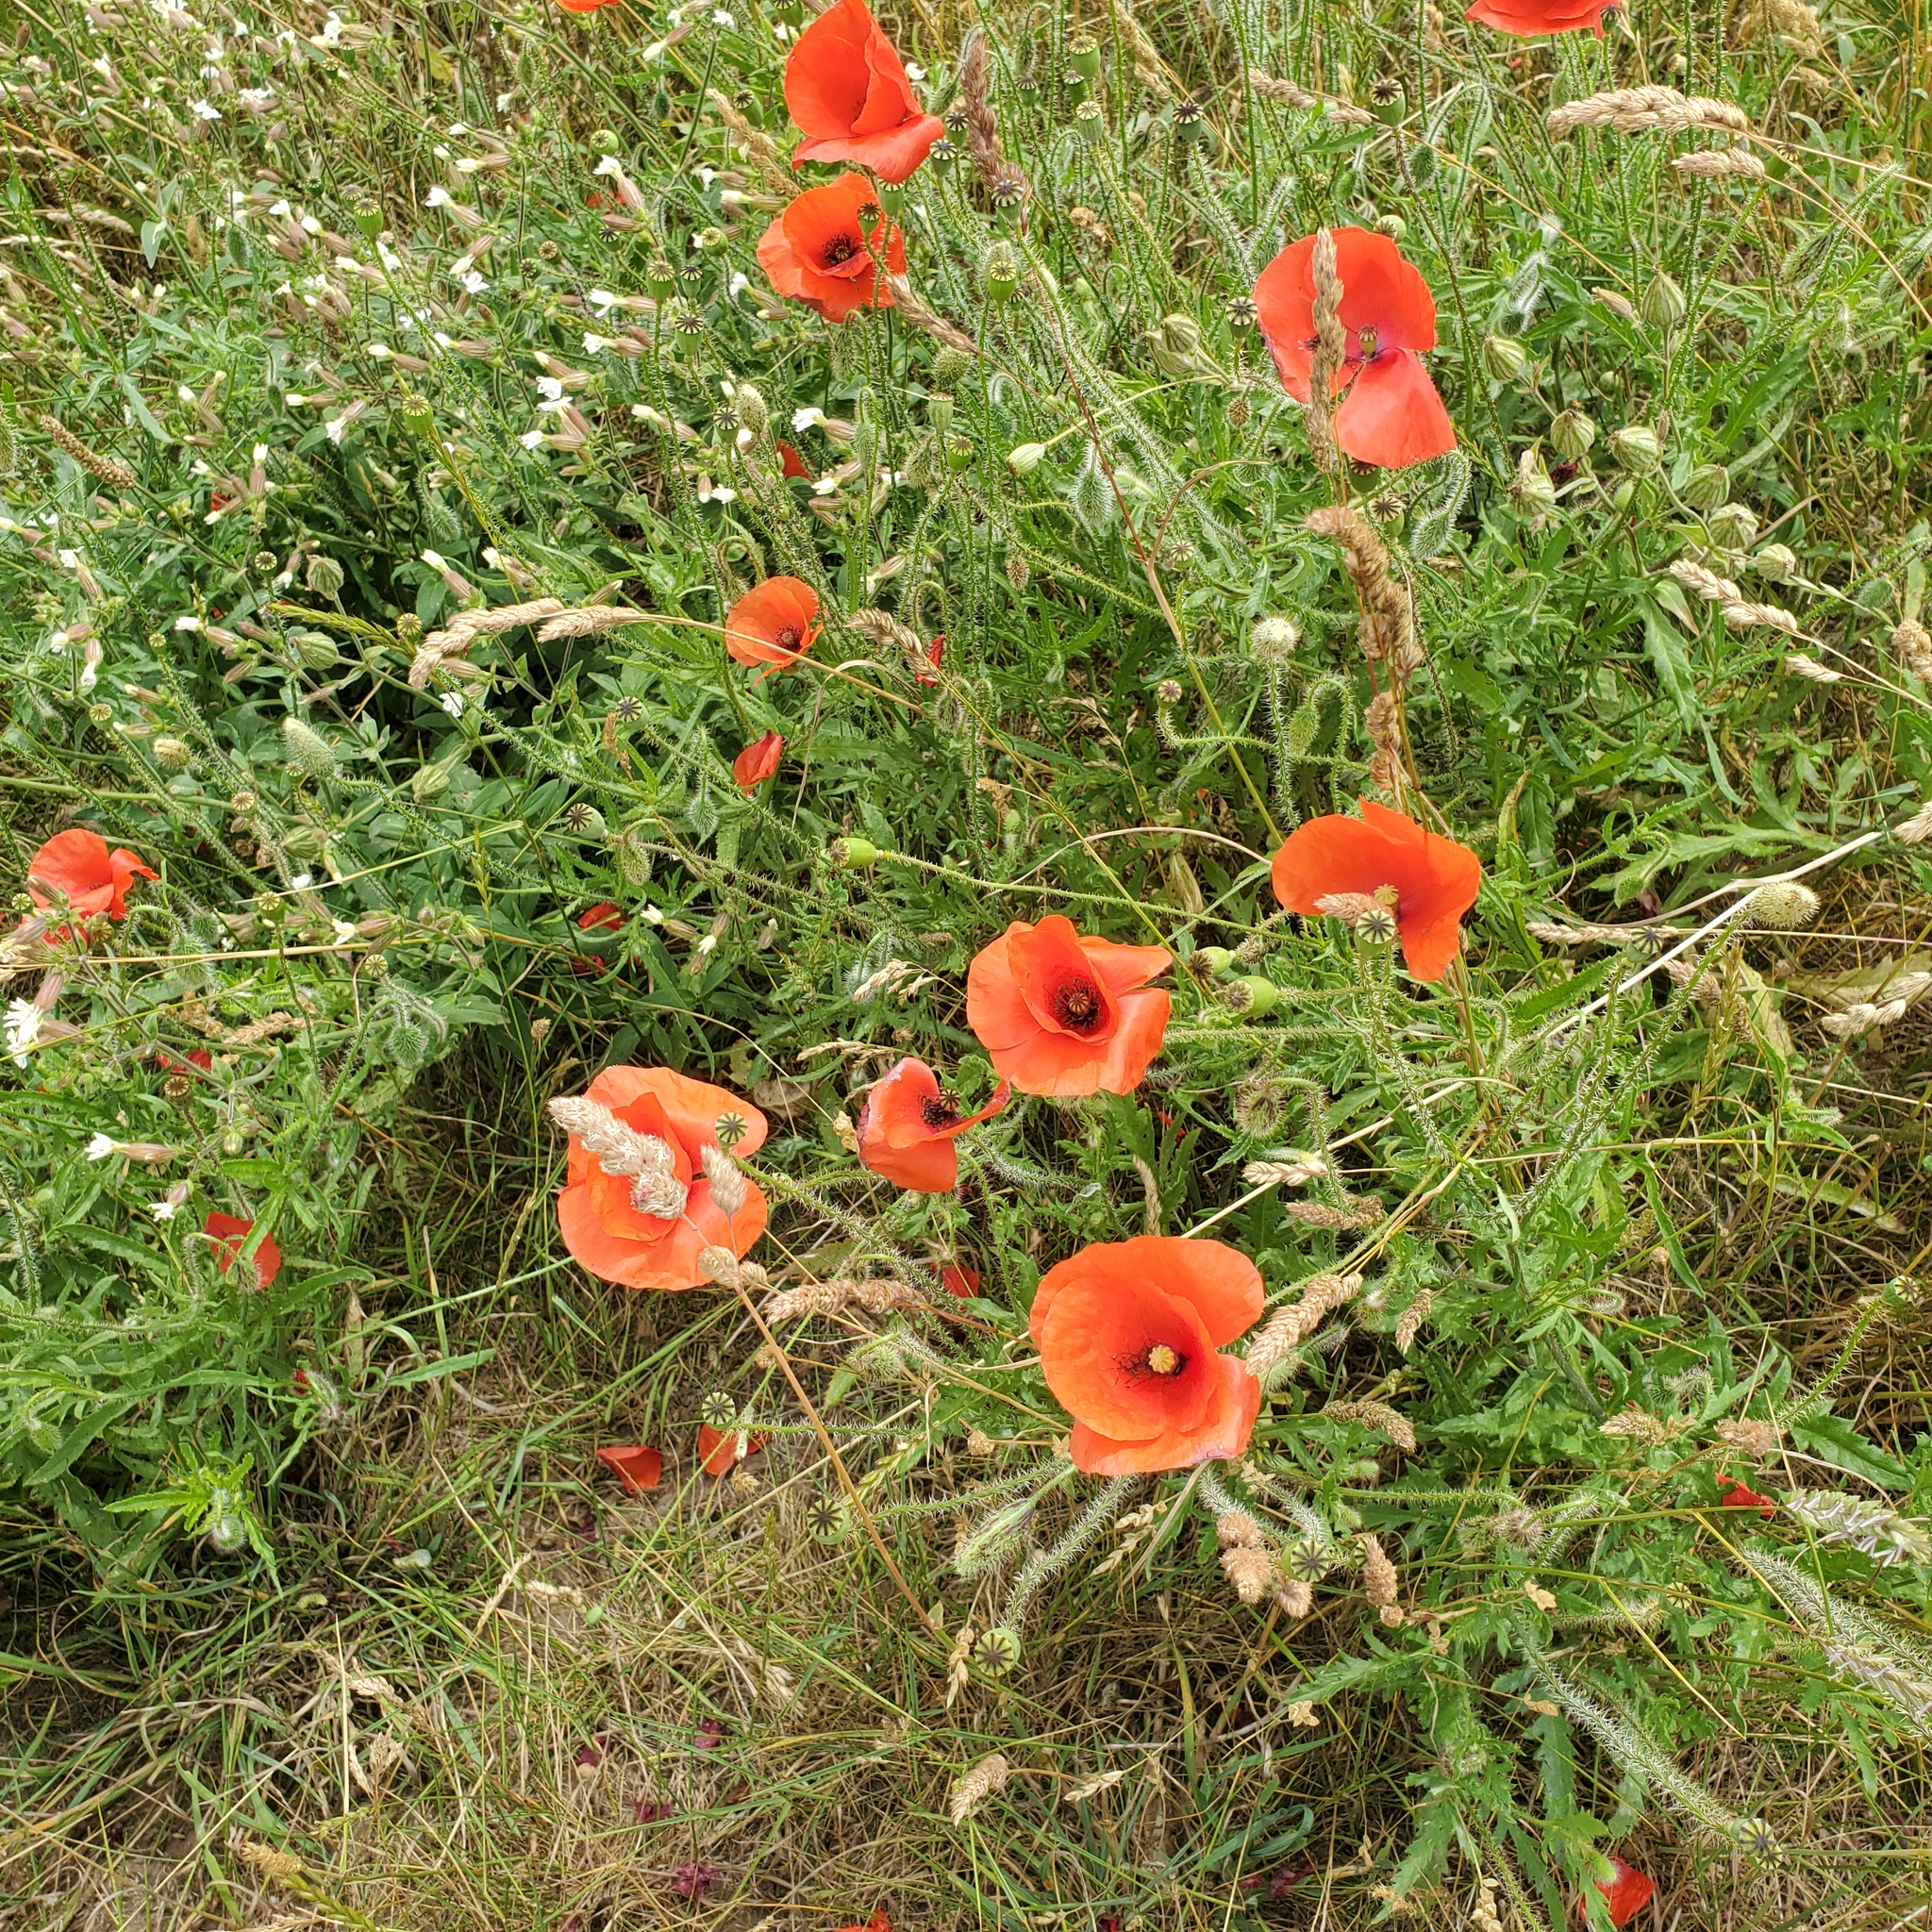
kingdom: Plantae
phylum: Tracheophyta
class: Magnoliopsida
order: Ranunculales
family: Papaveraceae
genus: Papaver
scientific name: Papaver rhoeas
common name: Corn poppy
